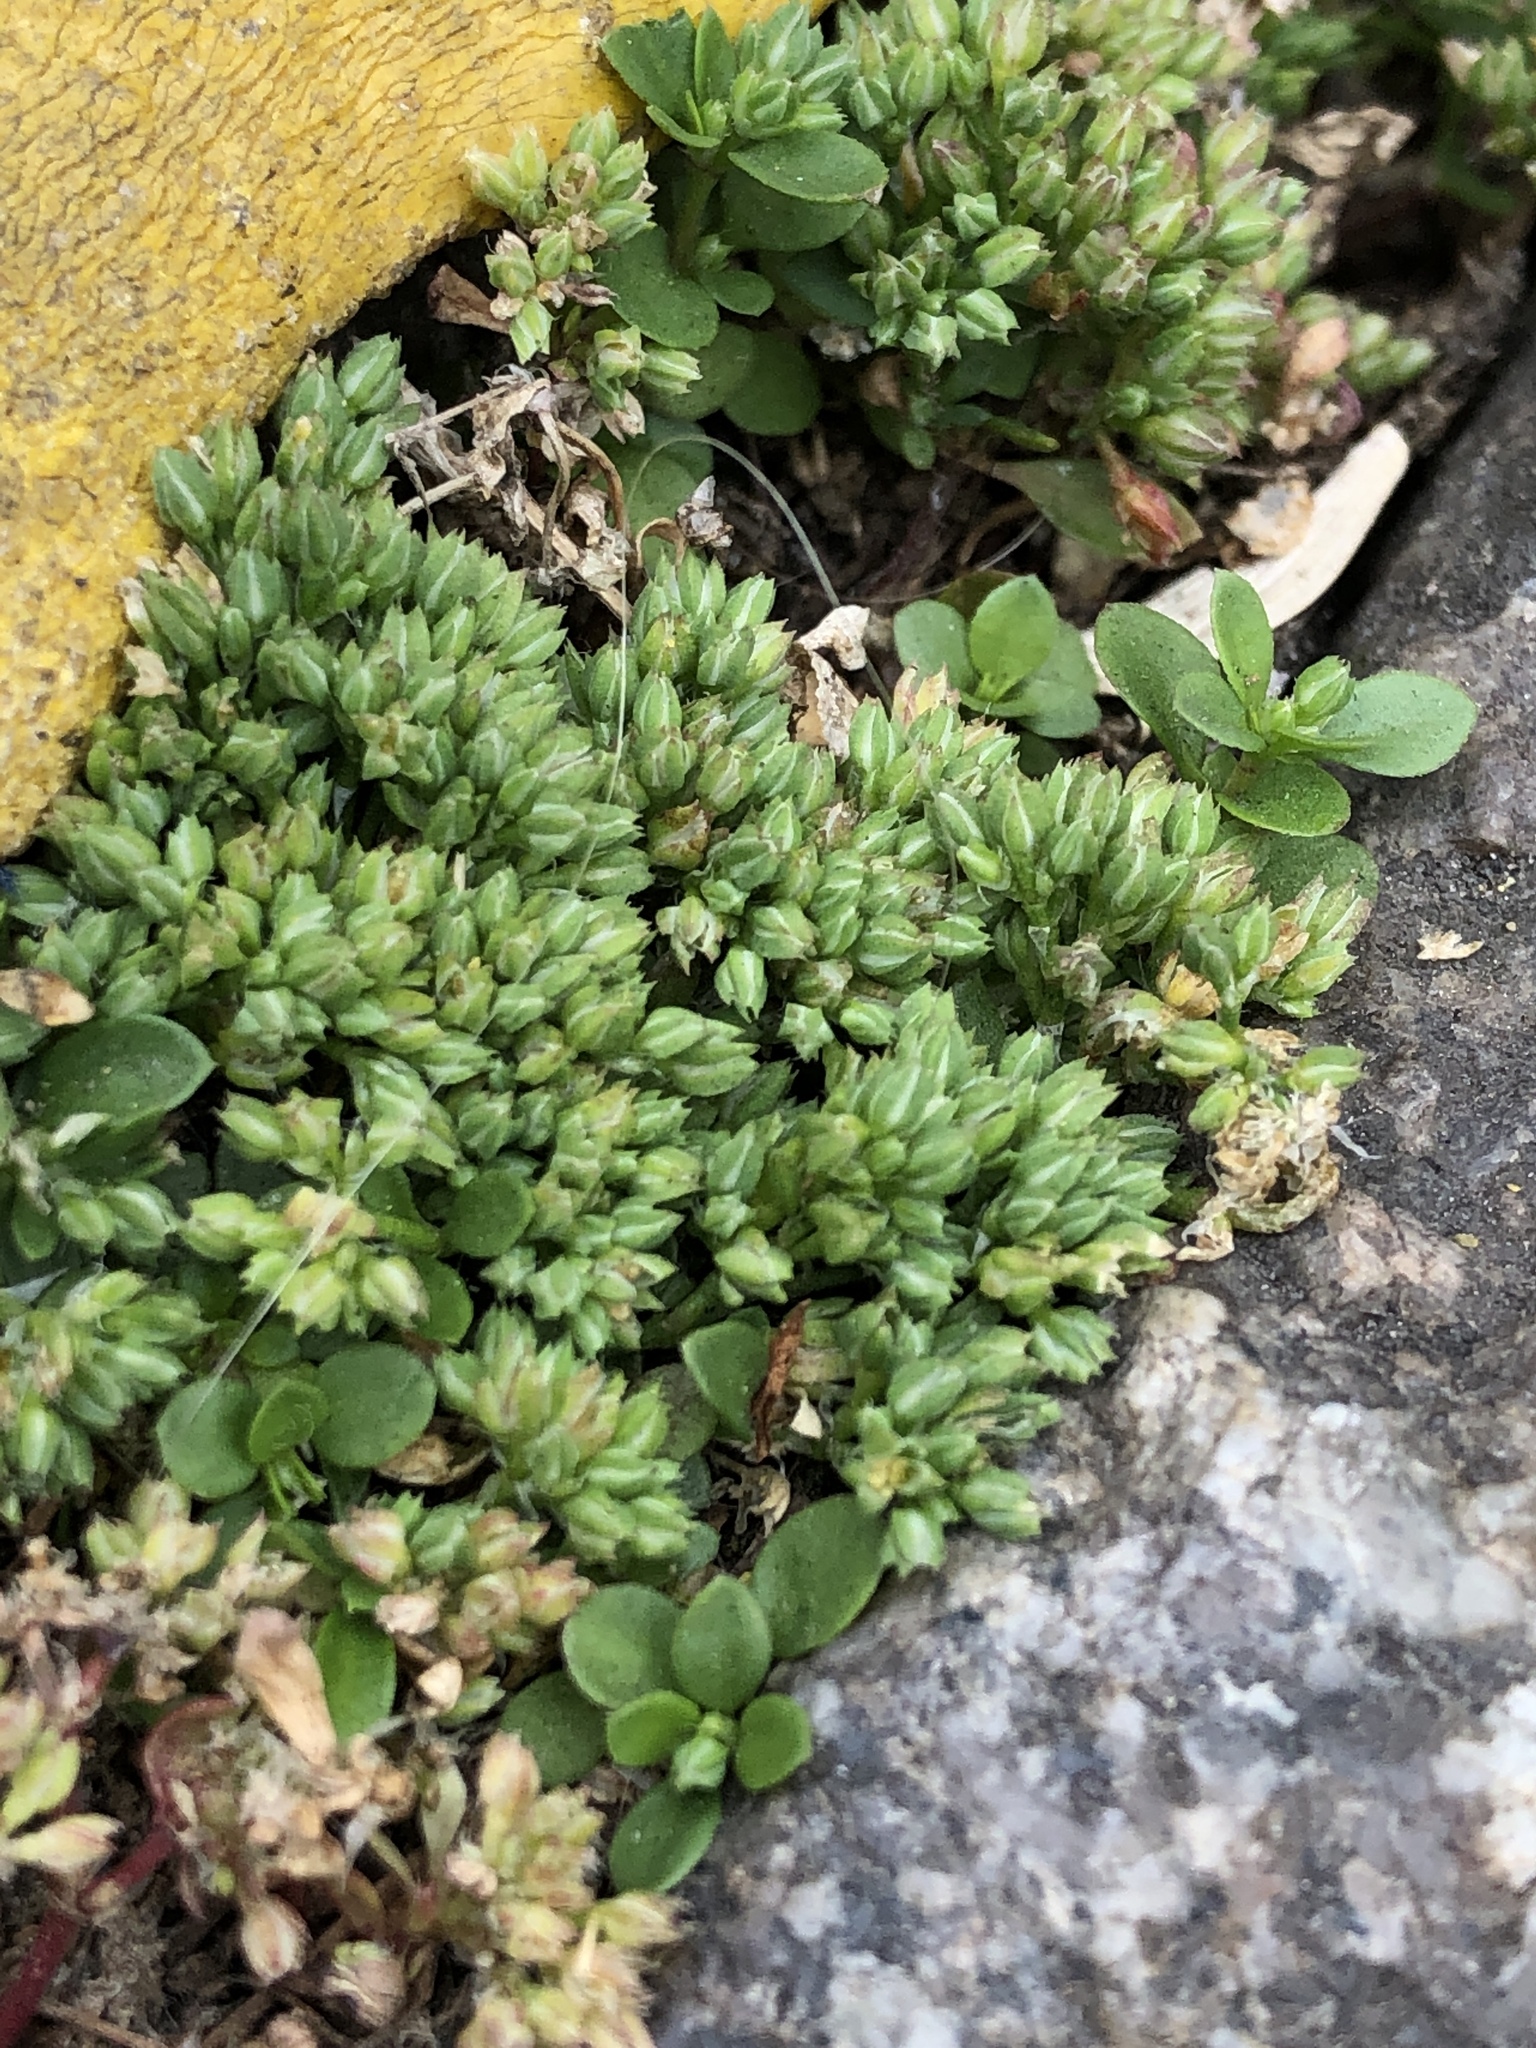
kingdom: Plantae
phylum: Tracheophyta
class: Magnoliopsida
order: Caryophyllales
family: Caryophyllaceae
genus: Polycarpon
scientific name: Polycarpon tetraphyllum
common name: Four-leaved all-seed
